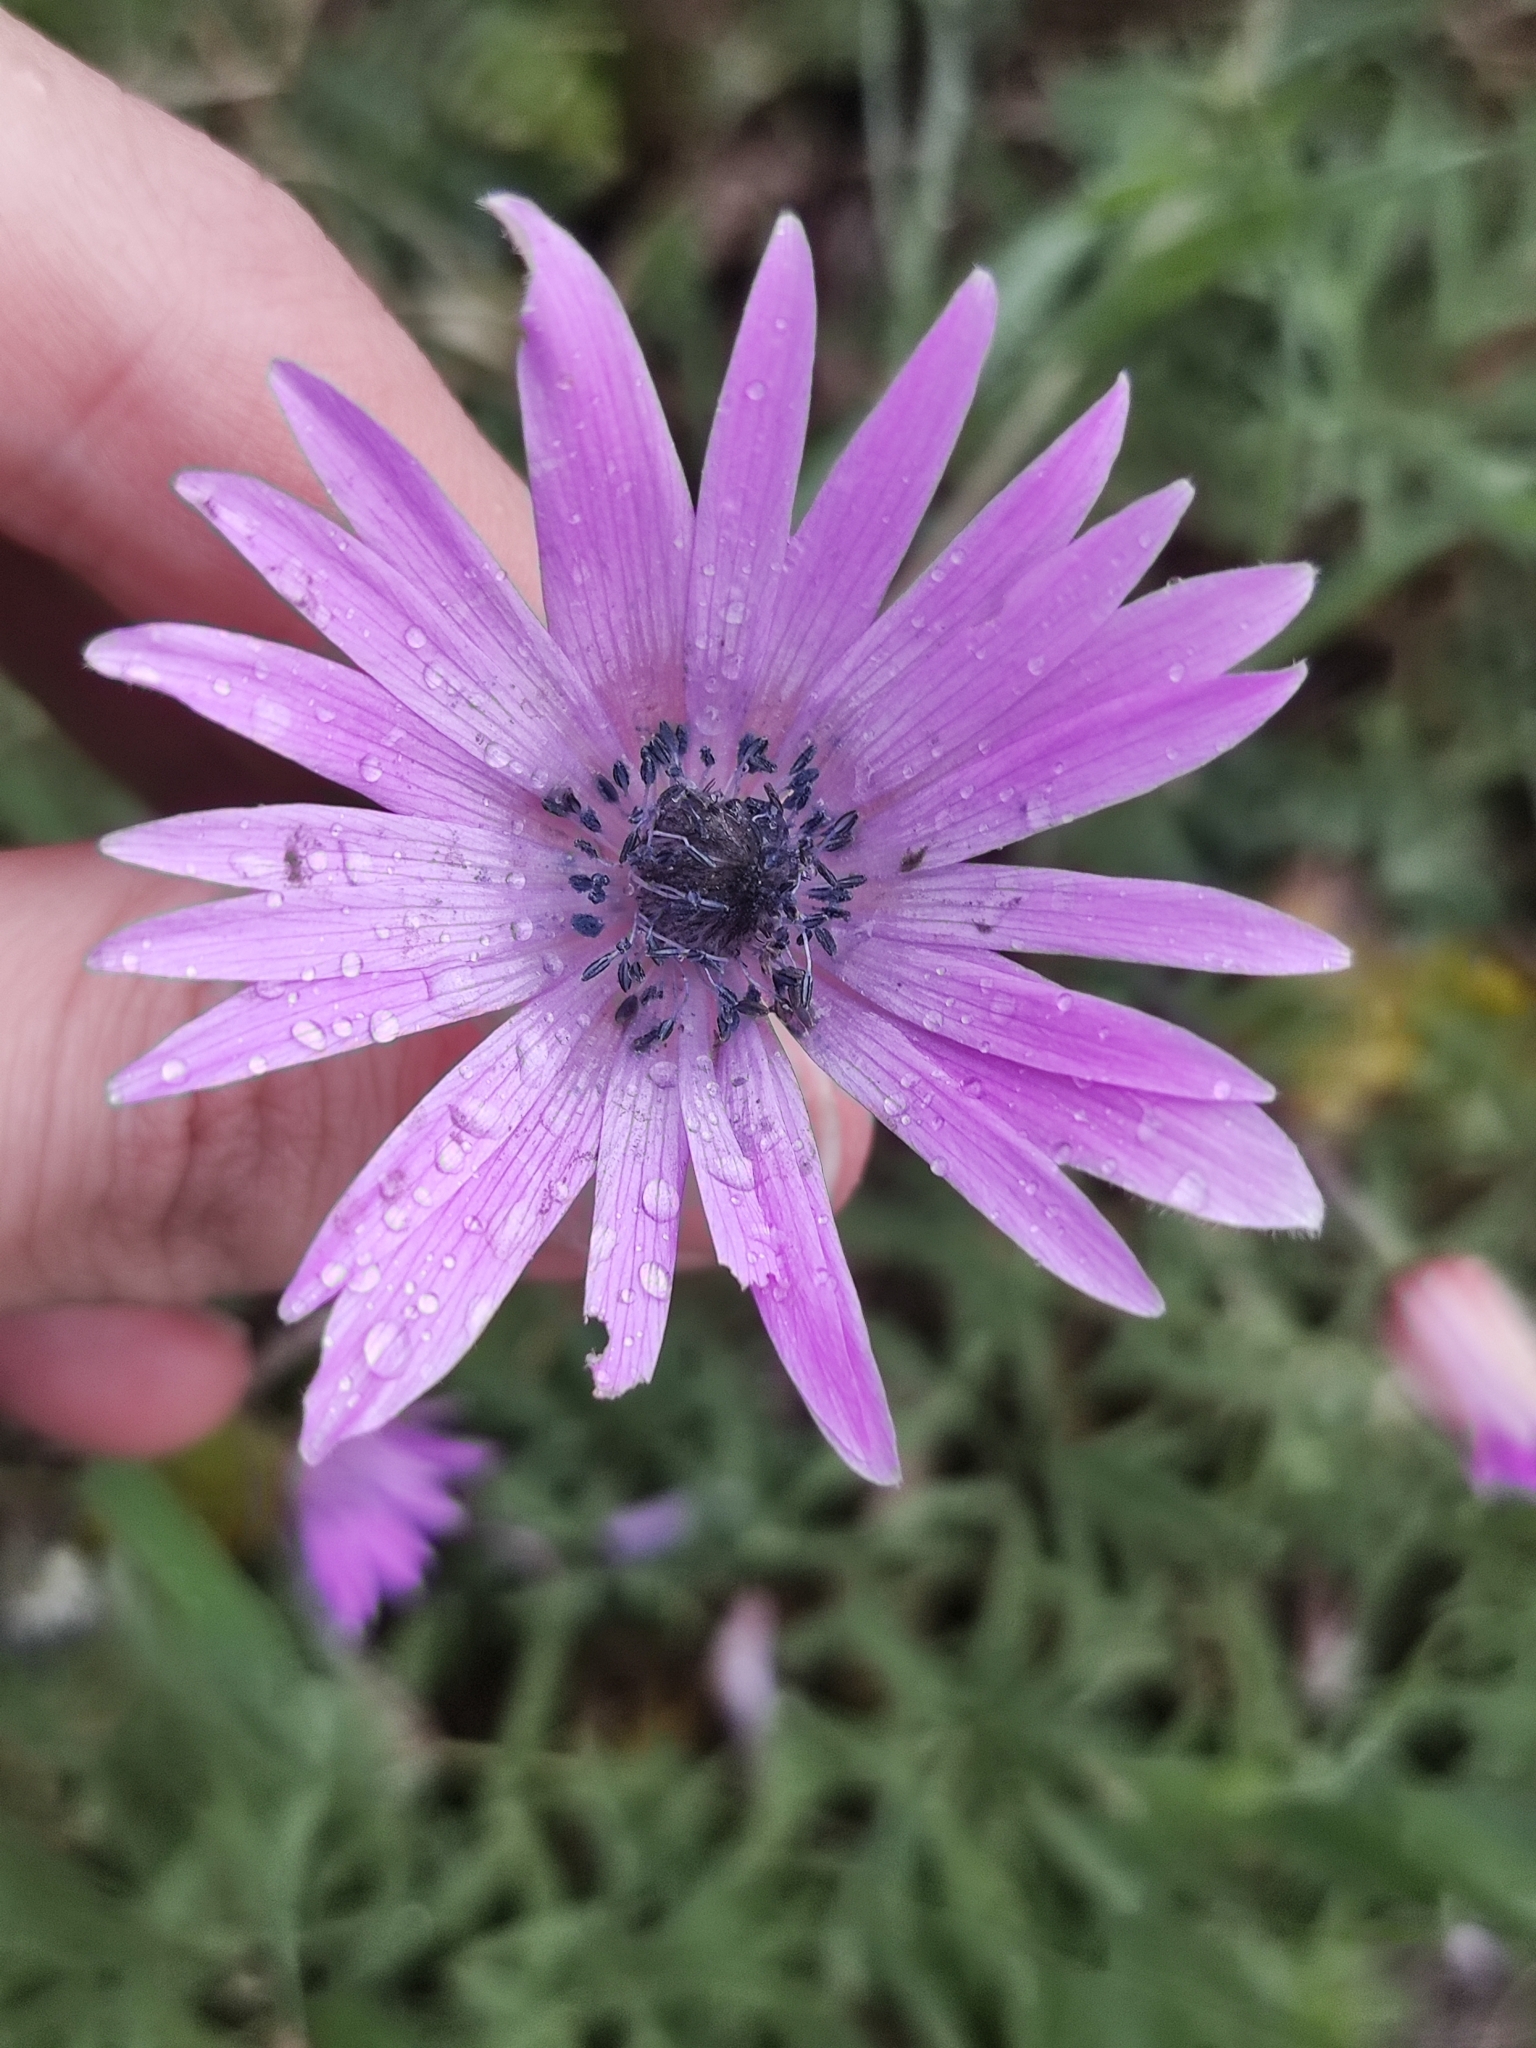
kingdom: Plantae
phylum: Tracheophyta
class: Magnoliopsida
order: Ranunculales
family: Ranunculaceae
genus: Anemone
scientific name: Anemone hortensis
